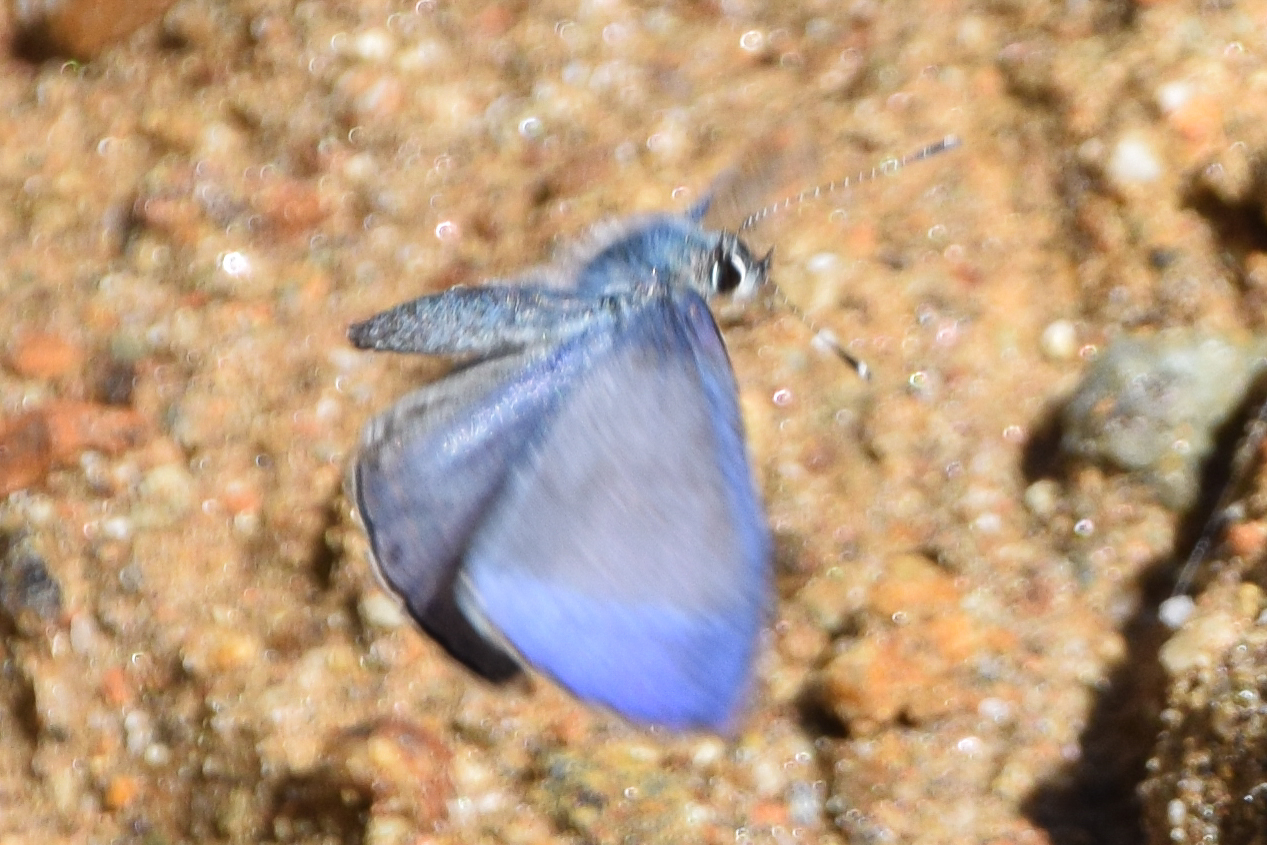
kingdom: Animalia
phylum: Arthropoda
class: Insecta
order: Lepidoptera
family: Lycaenidae
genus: Lycaenopsis
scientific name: Lycaenopsis tsukadai
